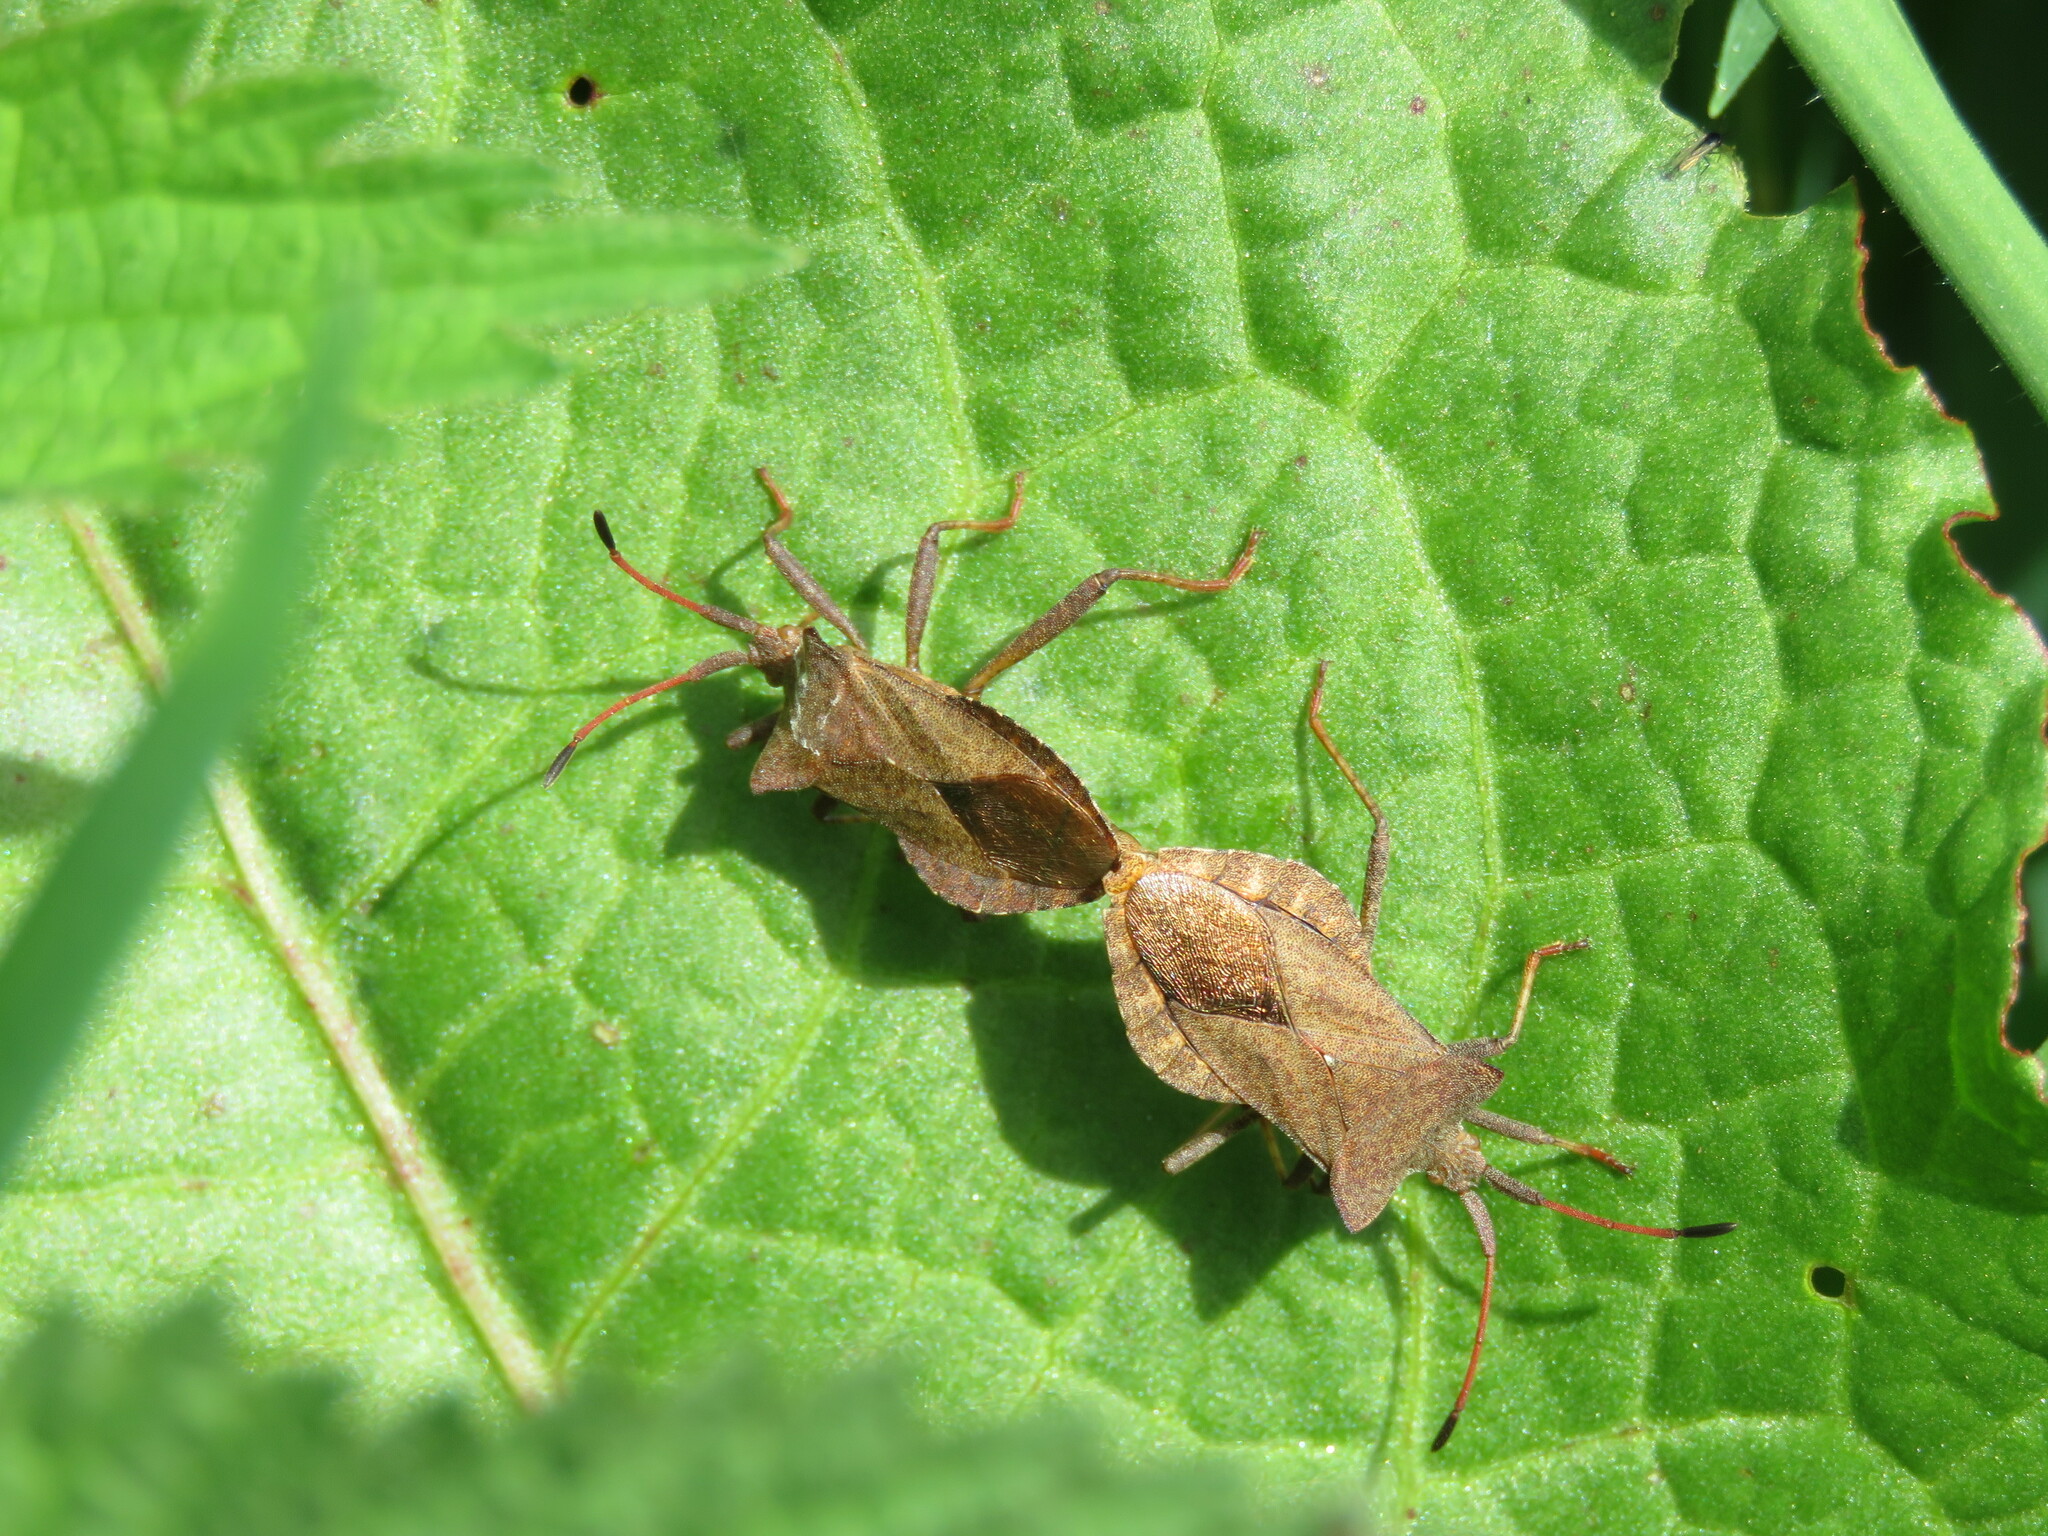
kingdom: Animalia
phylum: Arthropoda
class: Insecta
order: Hemiptera
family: Coreidae
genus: Coreus
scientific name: Coreus marginatus
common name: Dock bug
